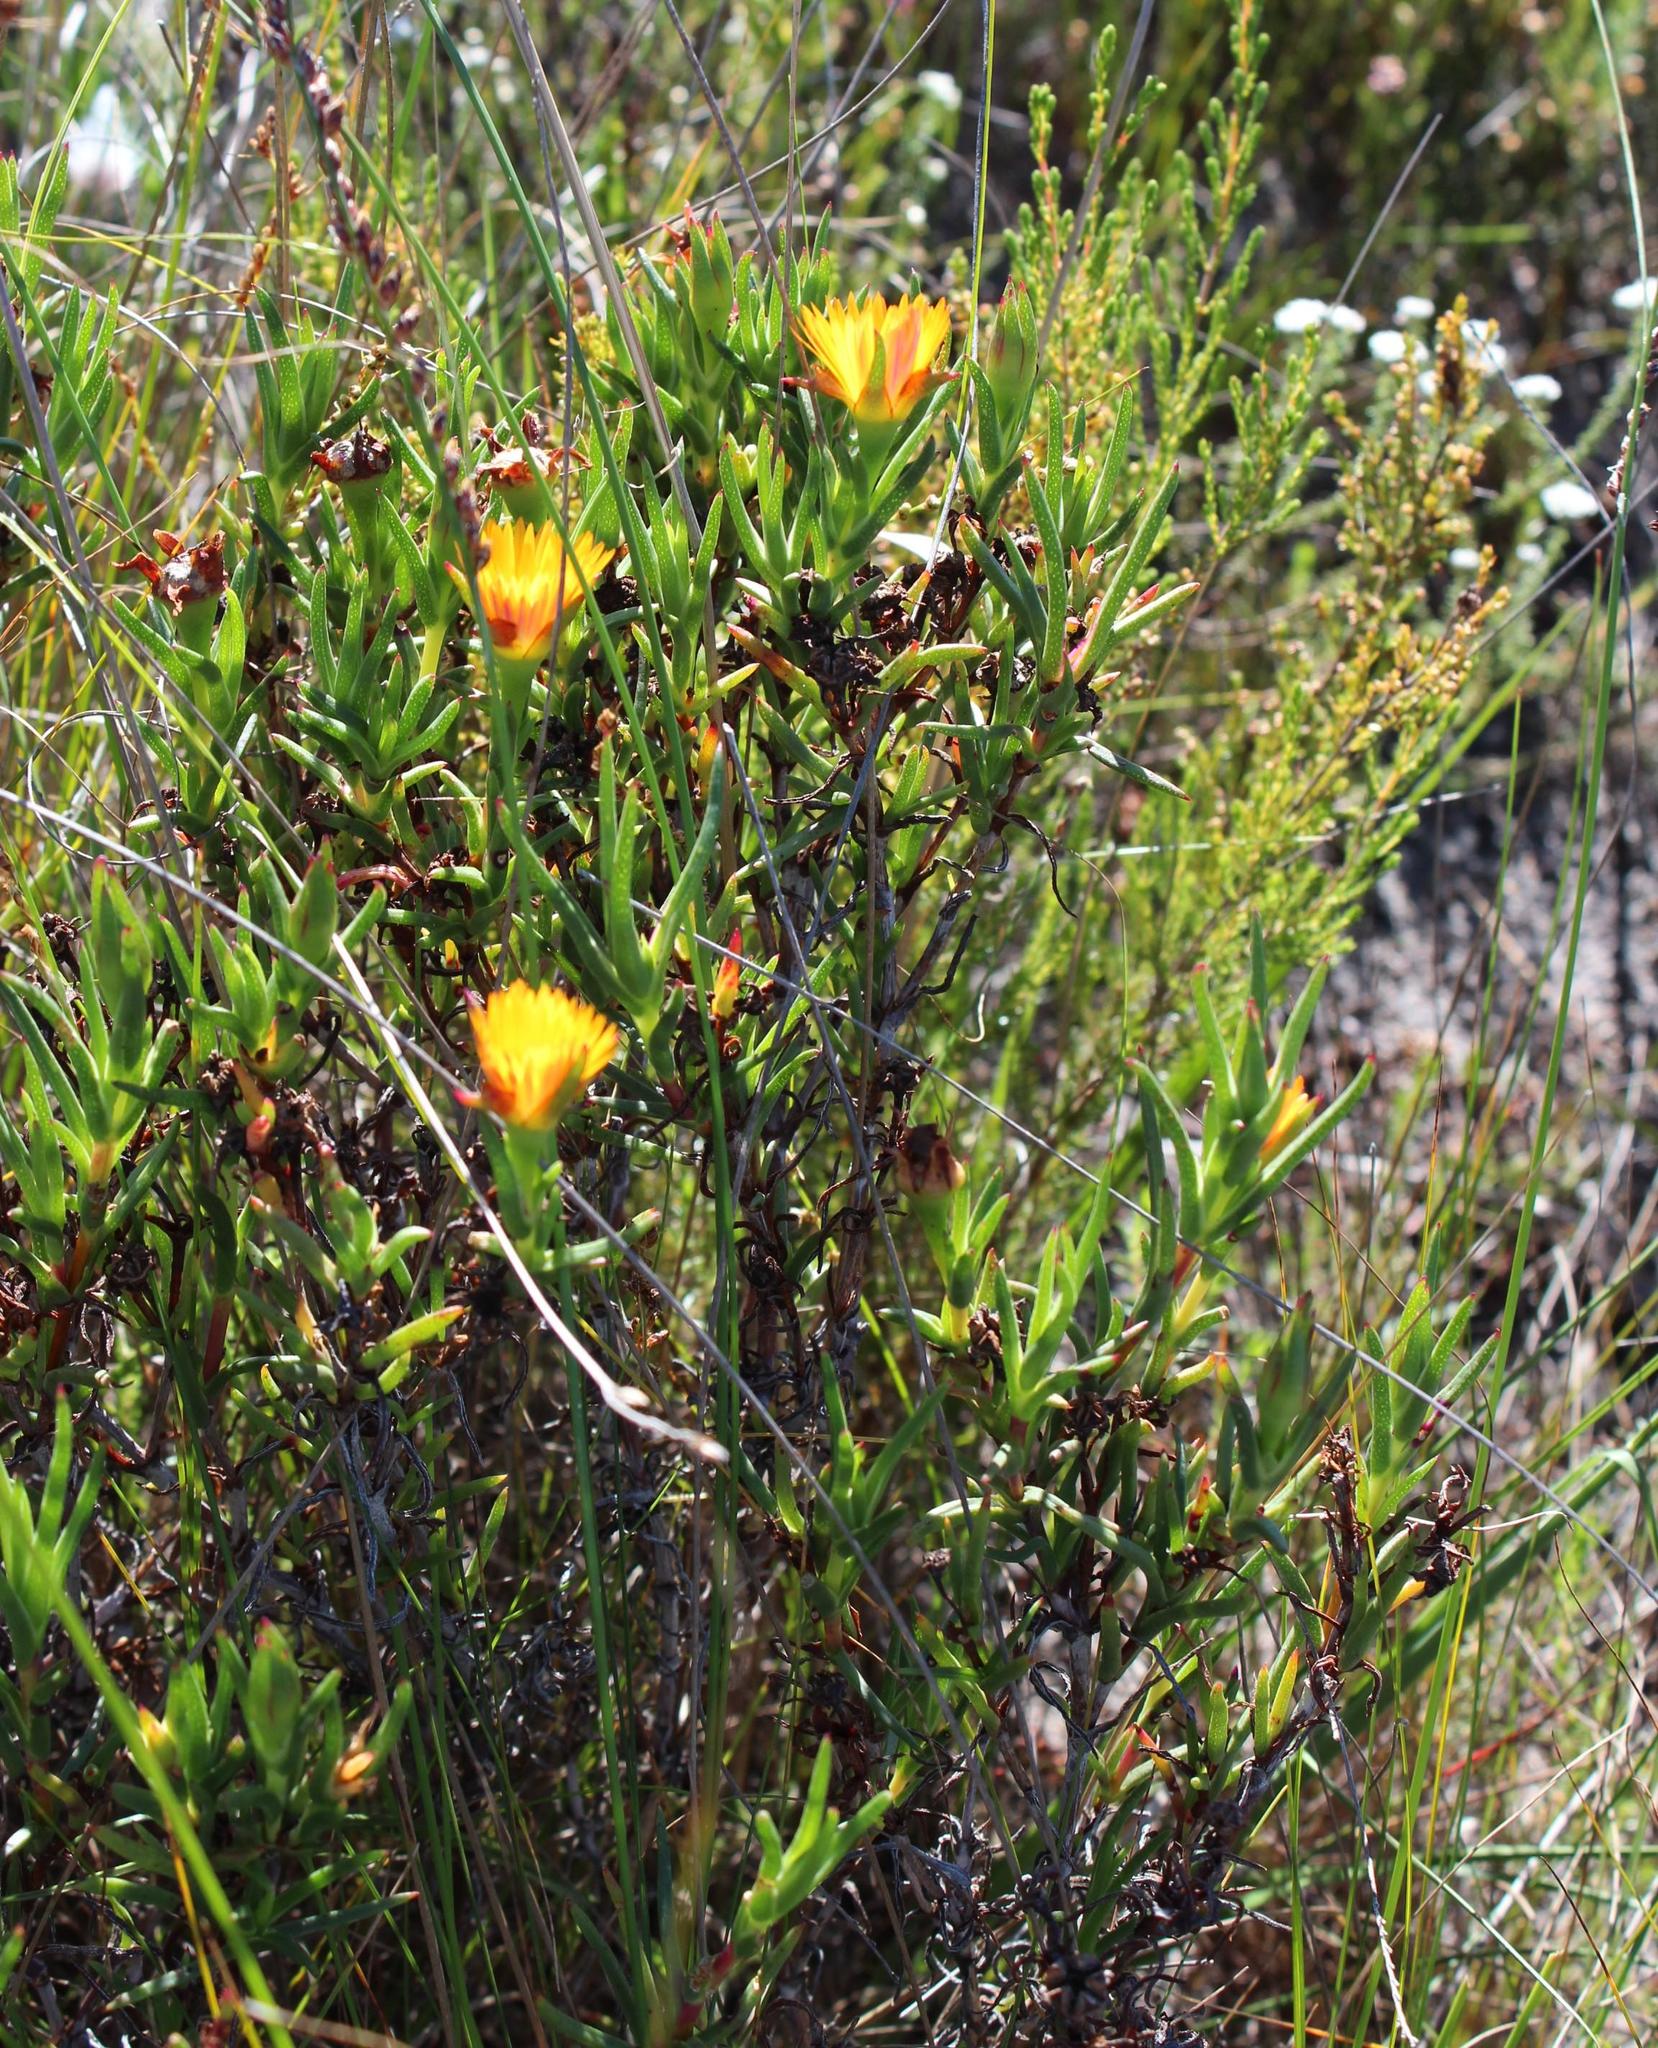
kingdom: Plantae
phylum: Tracheophyta
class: Magnoliopsida
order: Caryophyllales
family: Aizoaceae
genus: Lampranthus
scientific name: Lampranthus bicolor
